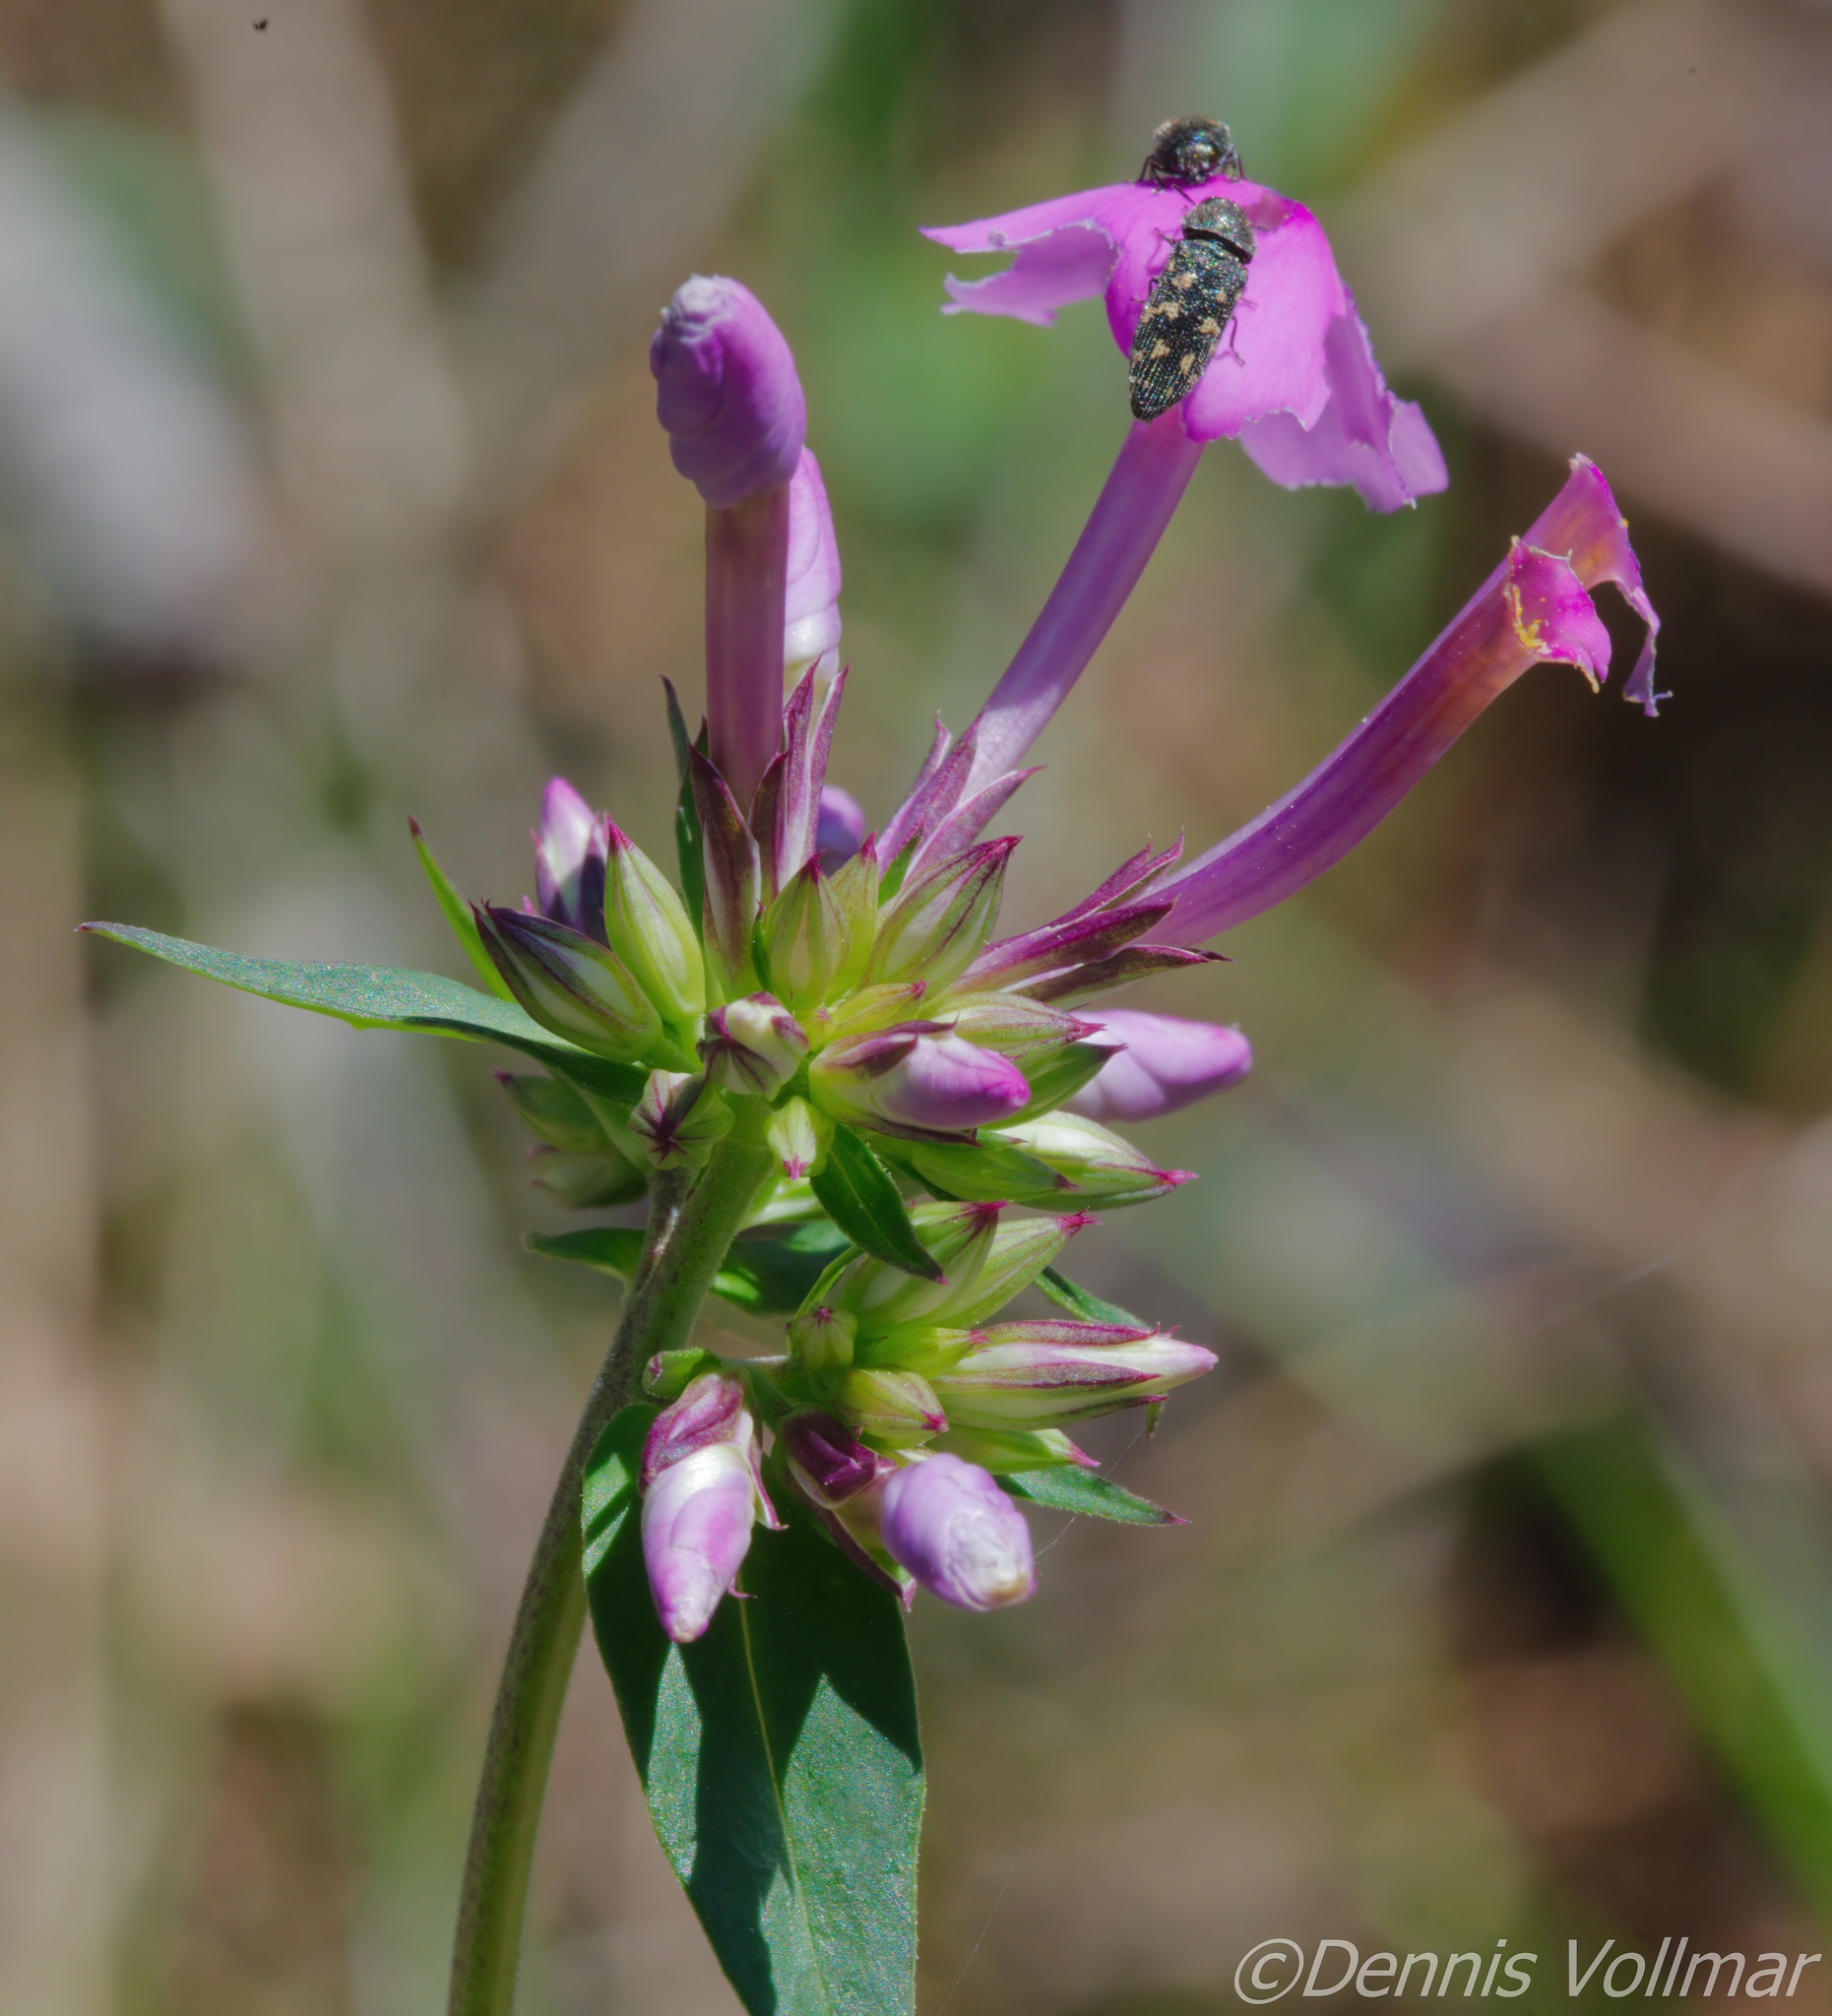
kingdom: Plantae
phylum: Tracheophyta
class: Magnoliopsida
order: Ericales
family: Polemoniaceae
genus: Phlox
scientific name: Phlox carolina
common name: Thick-leaf phlox
